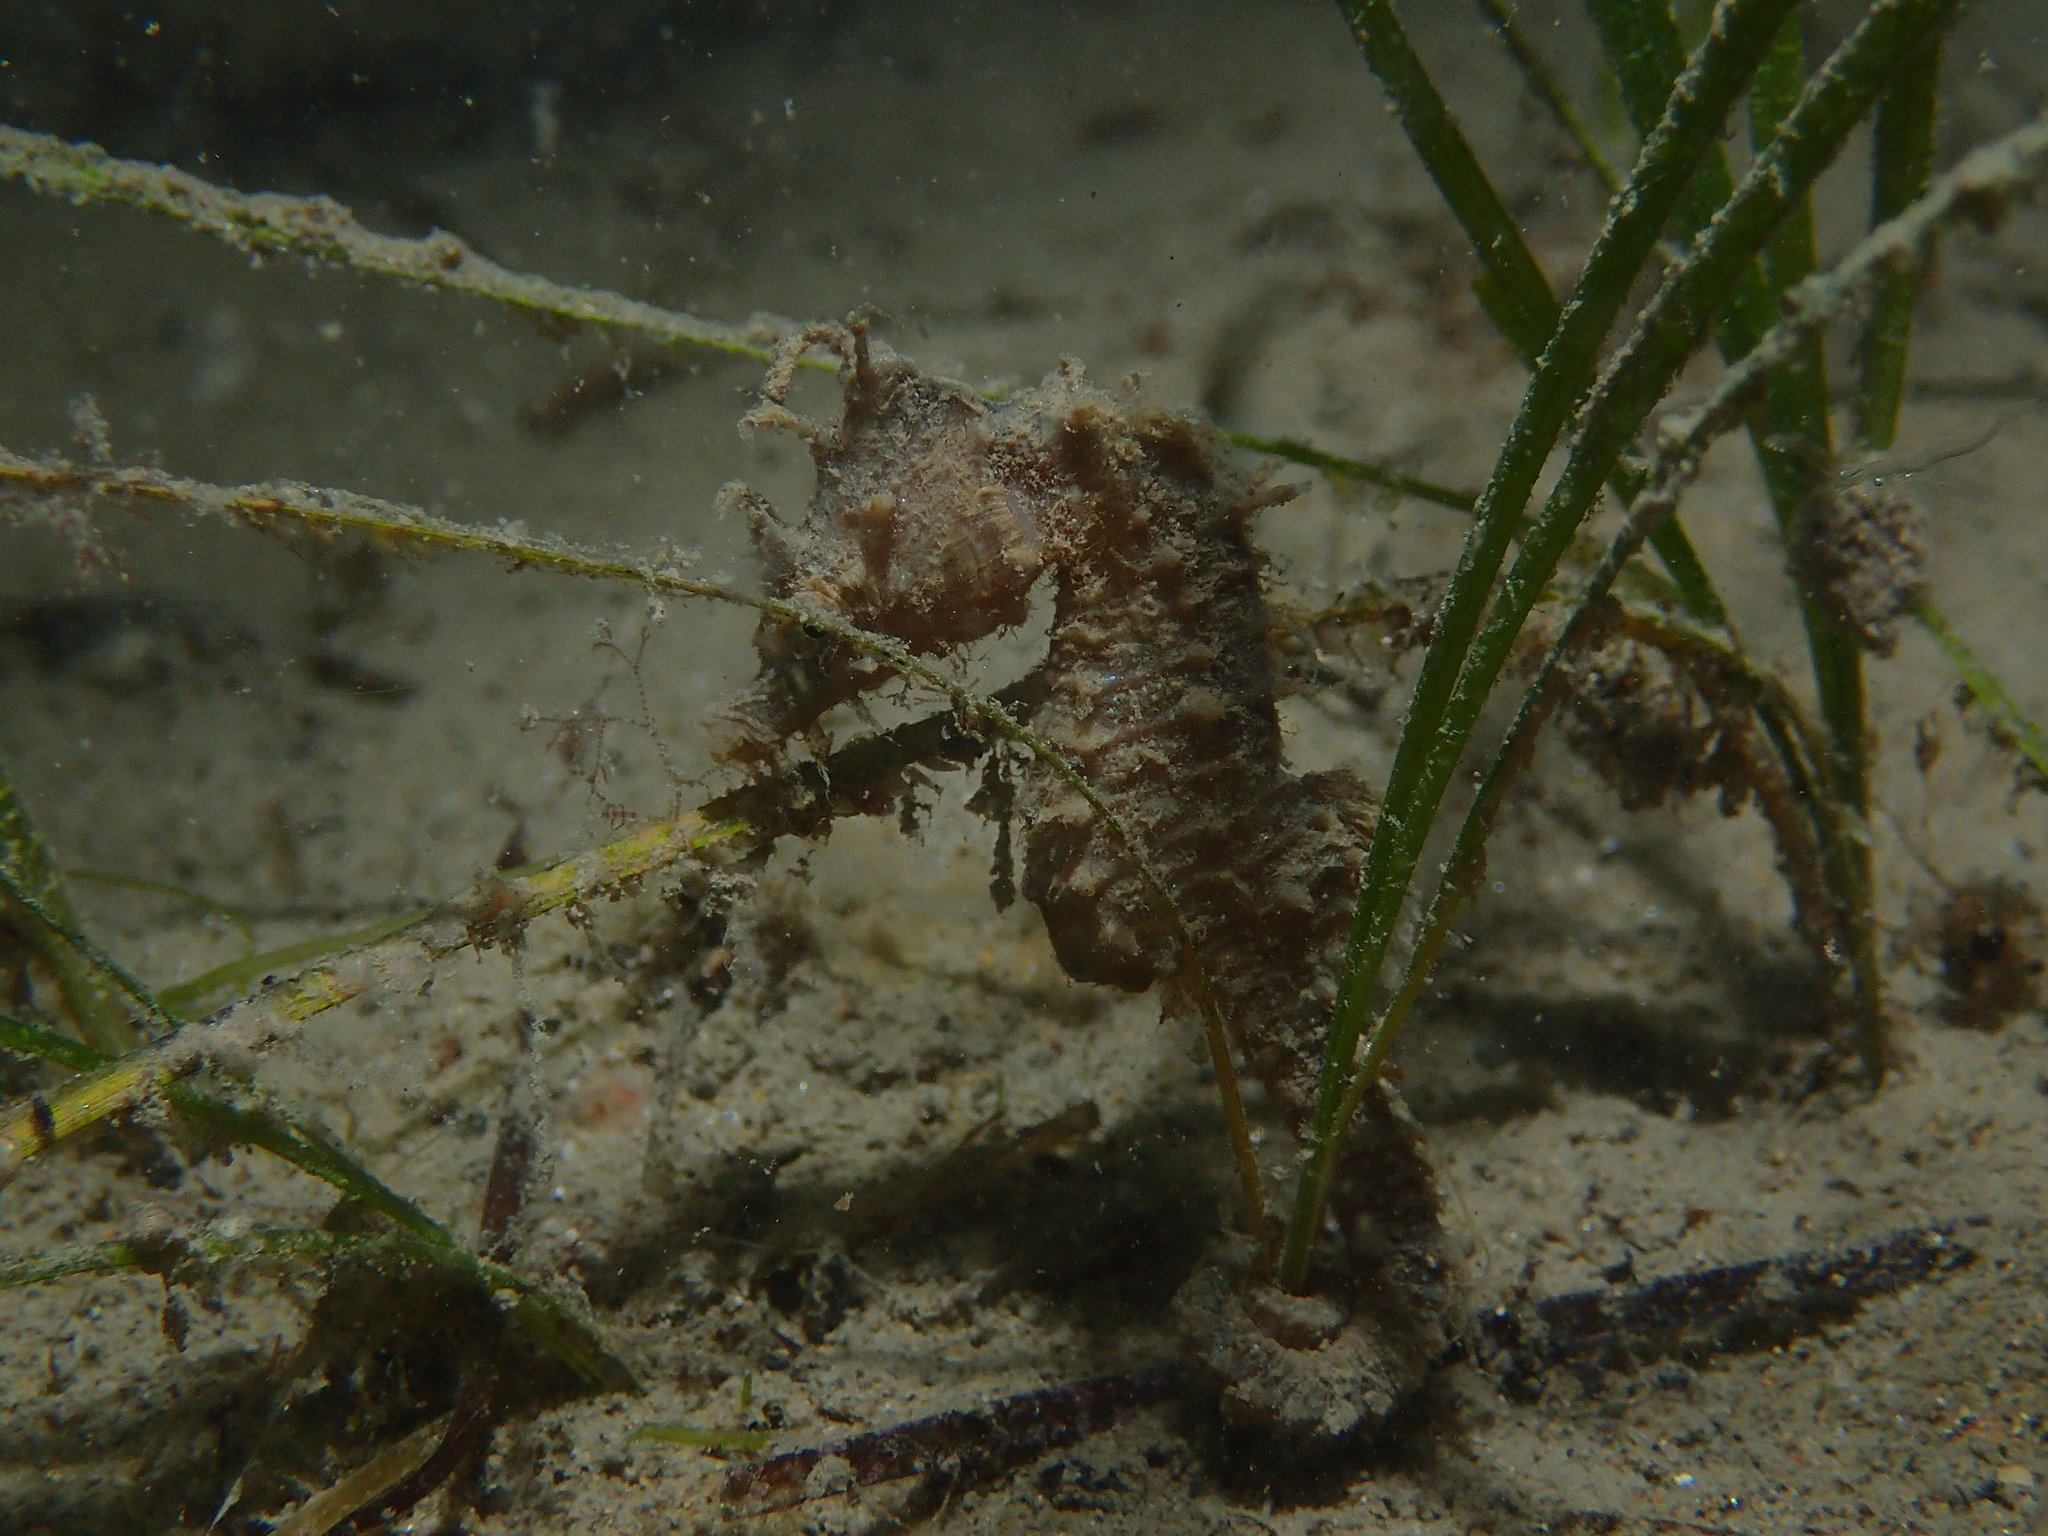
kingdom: Animalia
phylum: Chordata
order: Syngnathiformes
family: Syngnathidae
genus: Hippocampus
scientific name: Hippocampus hippocampus
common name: Short-snouted seahorse
